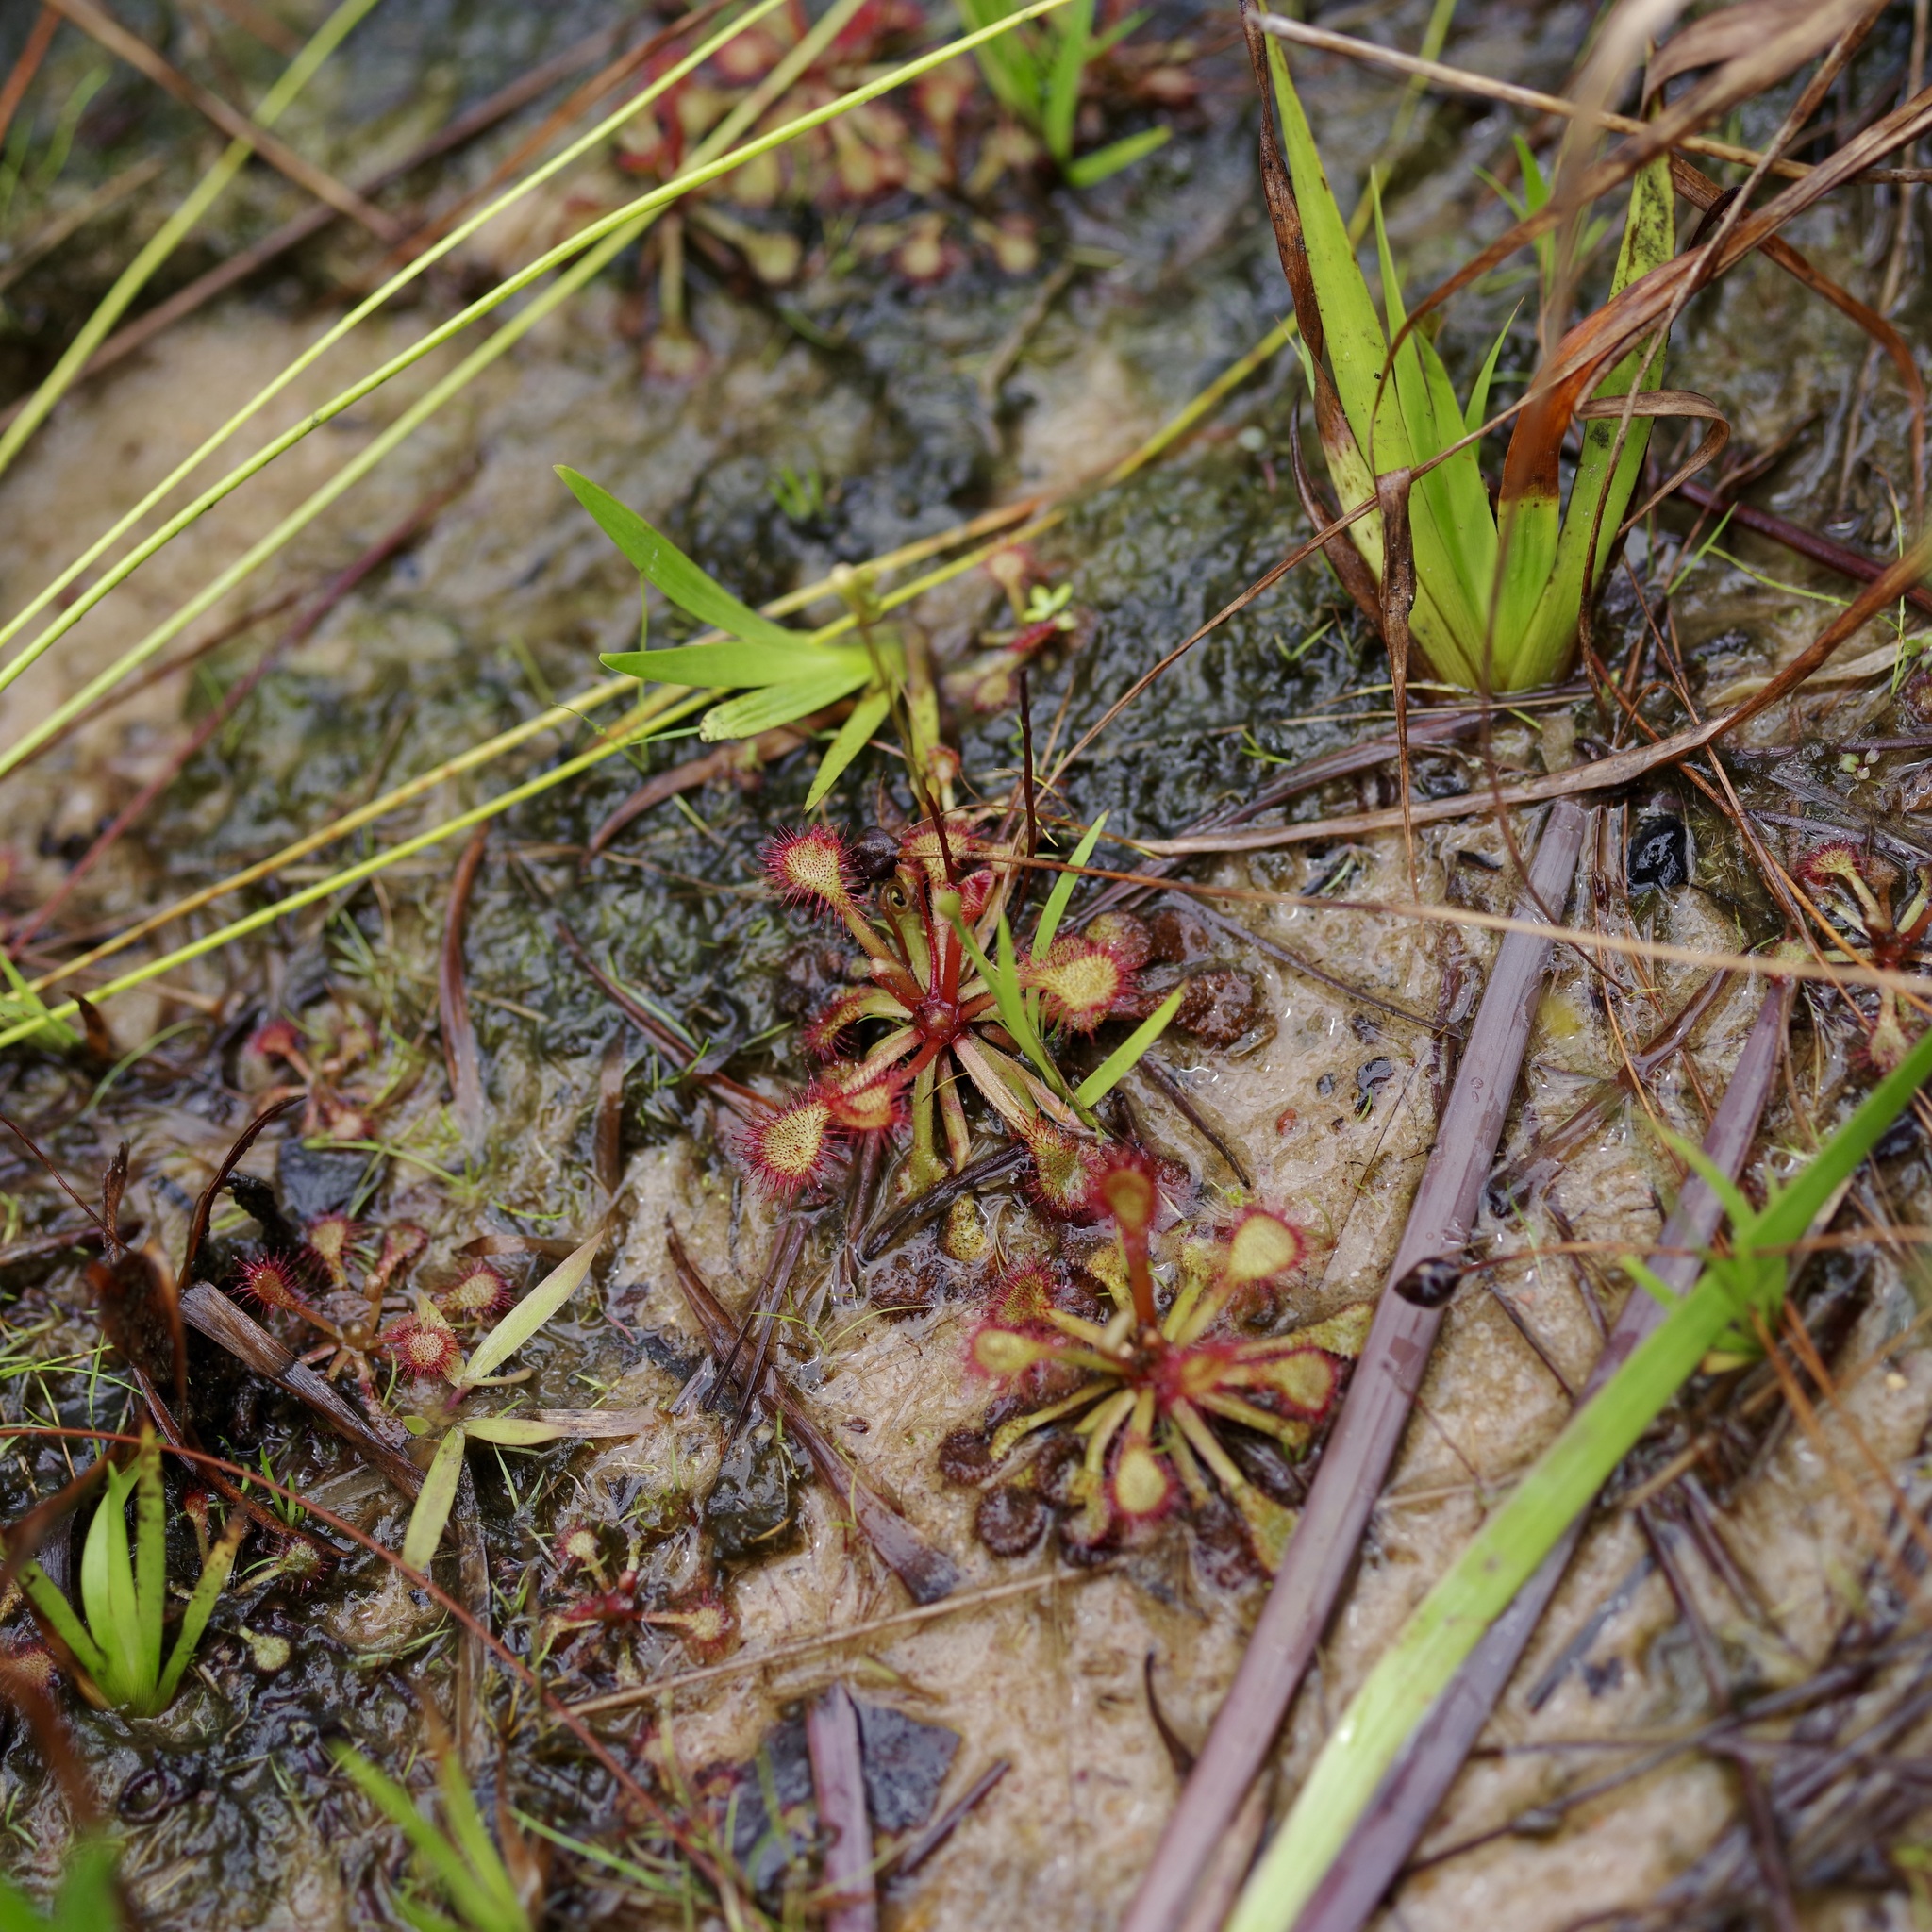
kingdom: Plantae
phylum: Tracheophyta
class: Magnoliopsida
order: Caryophyllales
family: Droseraceae
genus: Drosera
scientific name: Drosera capillaris
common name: Pink sundew
